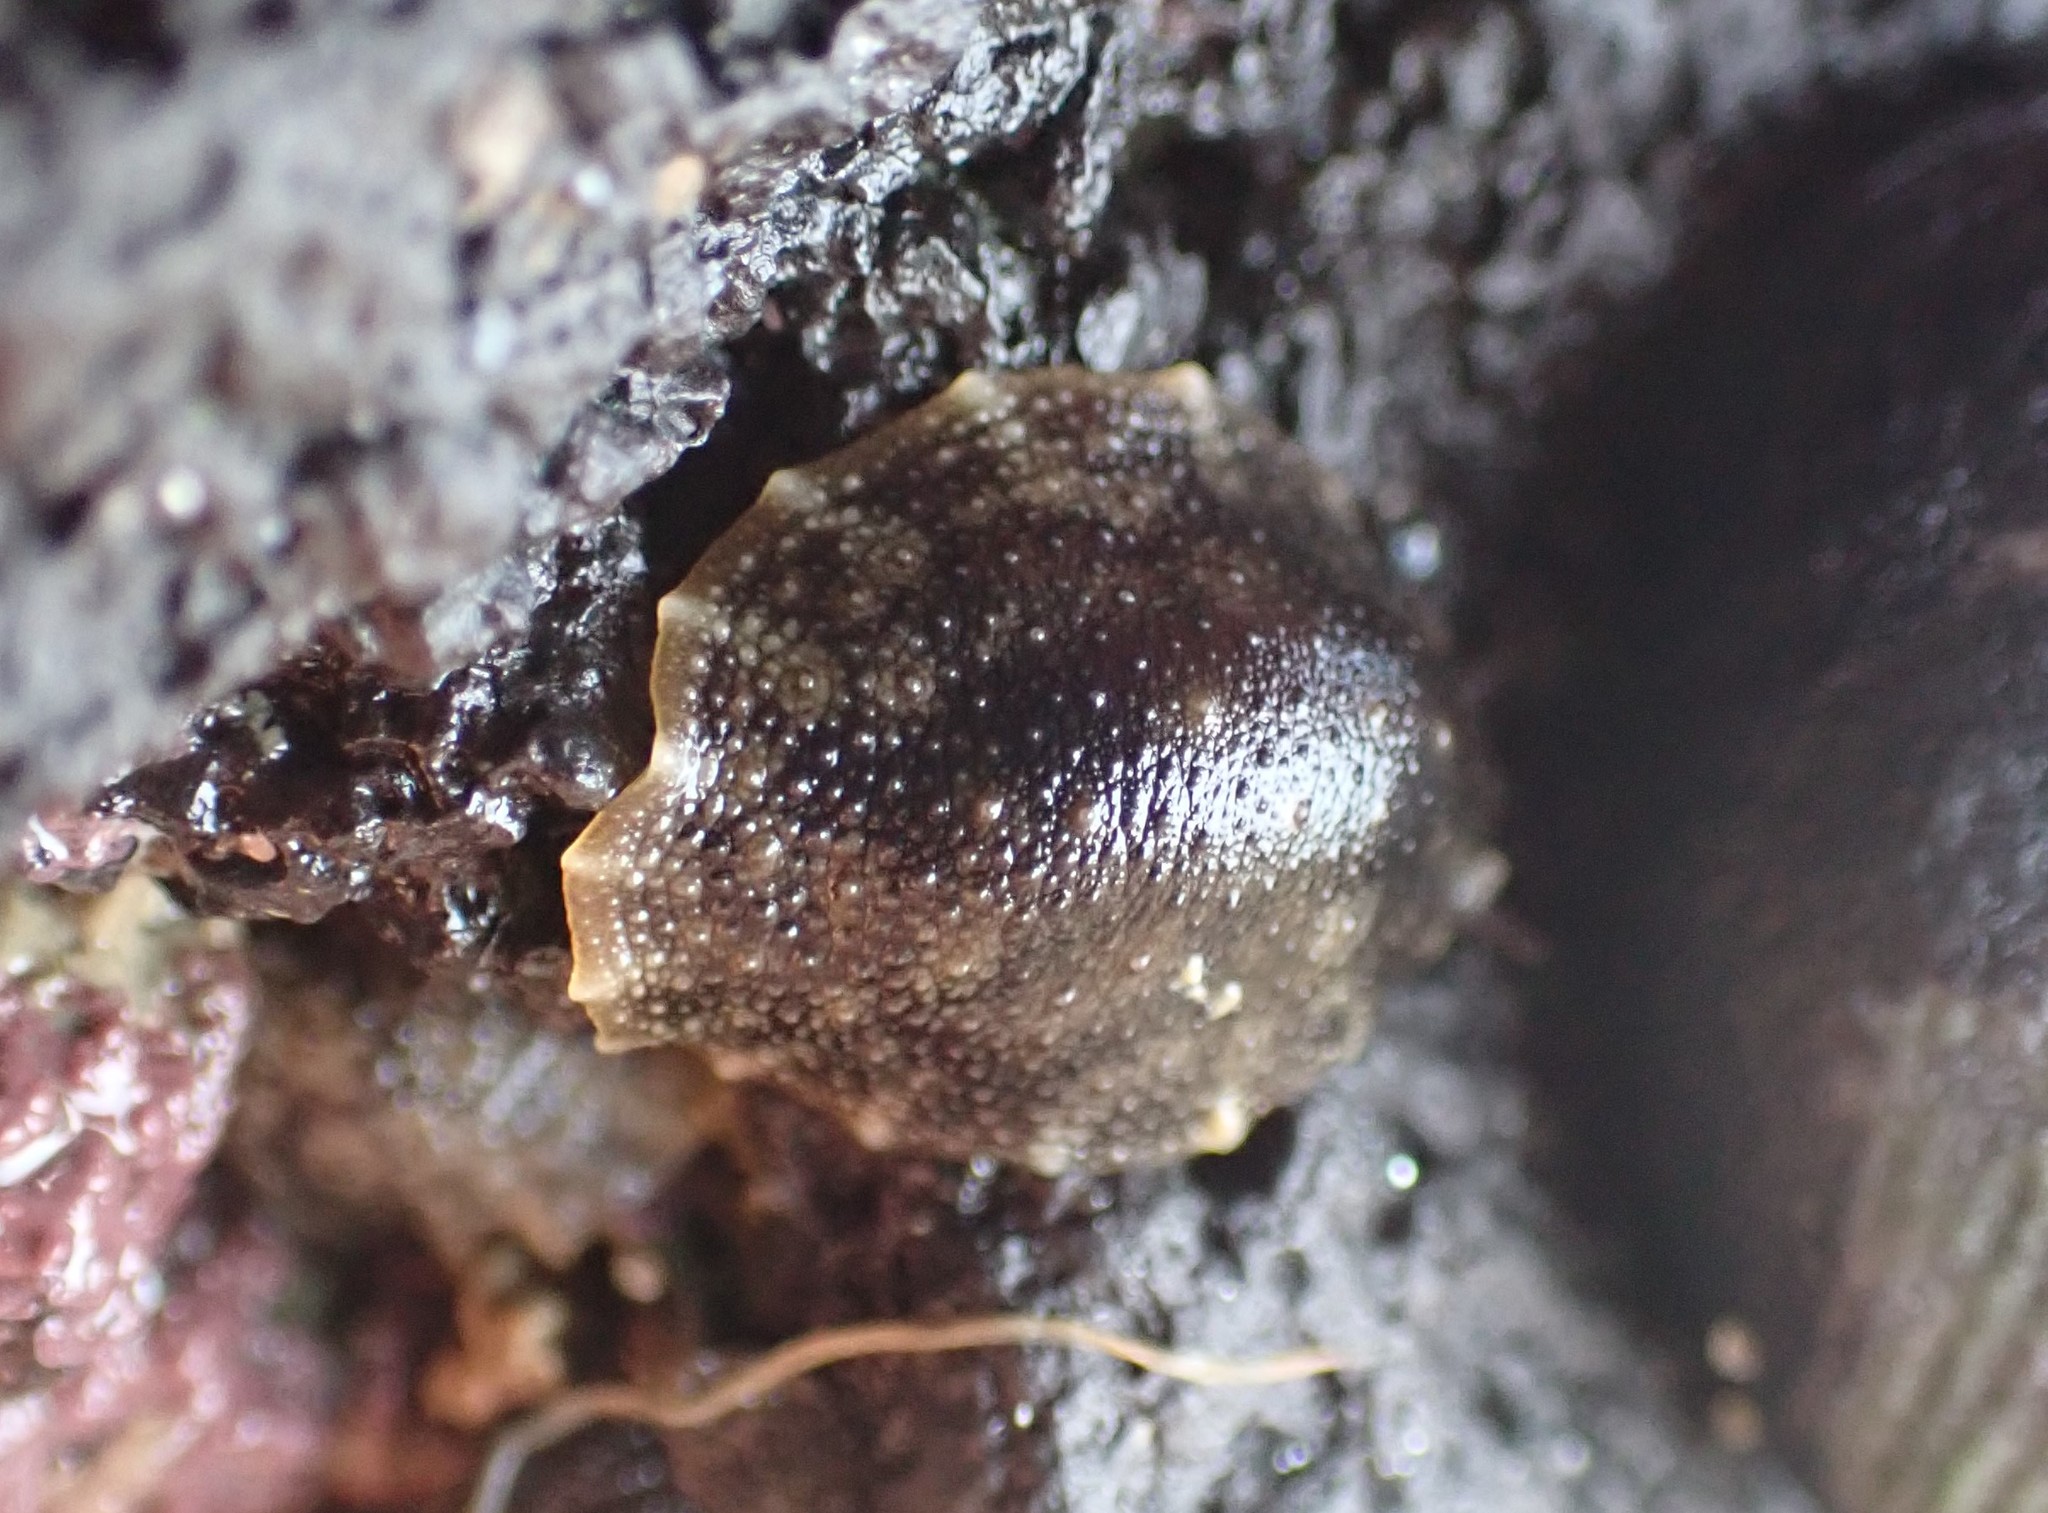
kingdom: Animalia
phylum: Mollusca
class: Gastropoda
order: Systellommatophora
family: Onchidiidae
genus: Onchidella
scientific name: Onchidella nigricans
